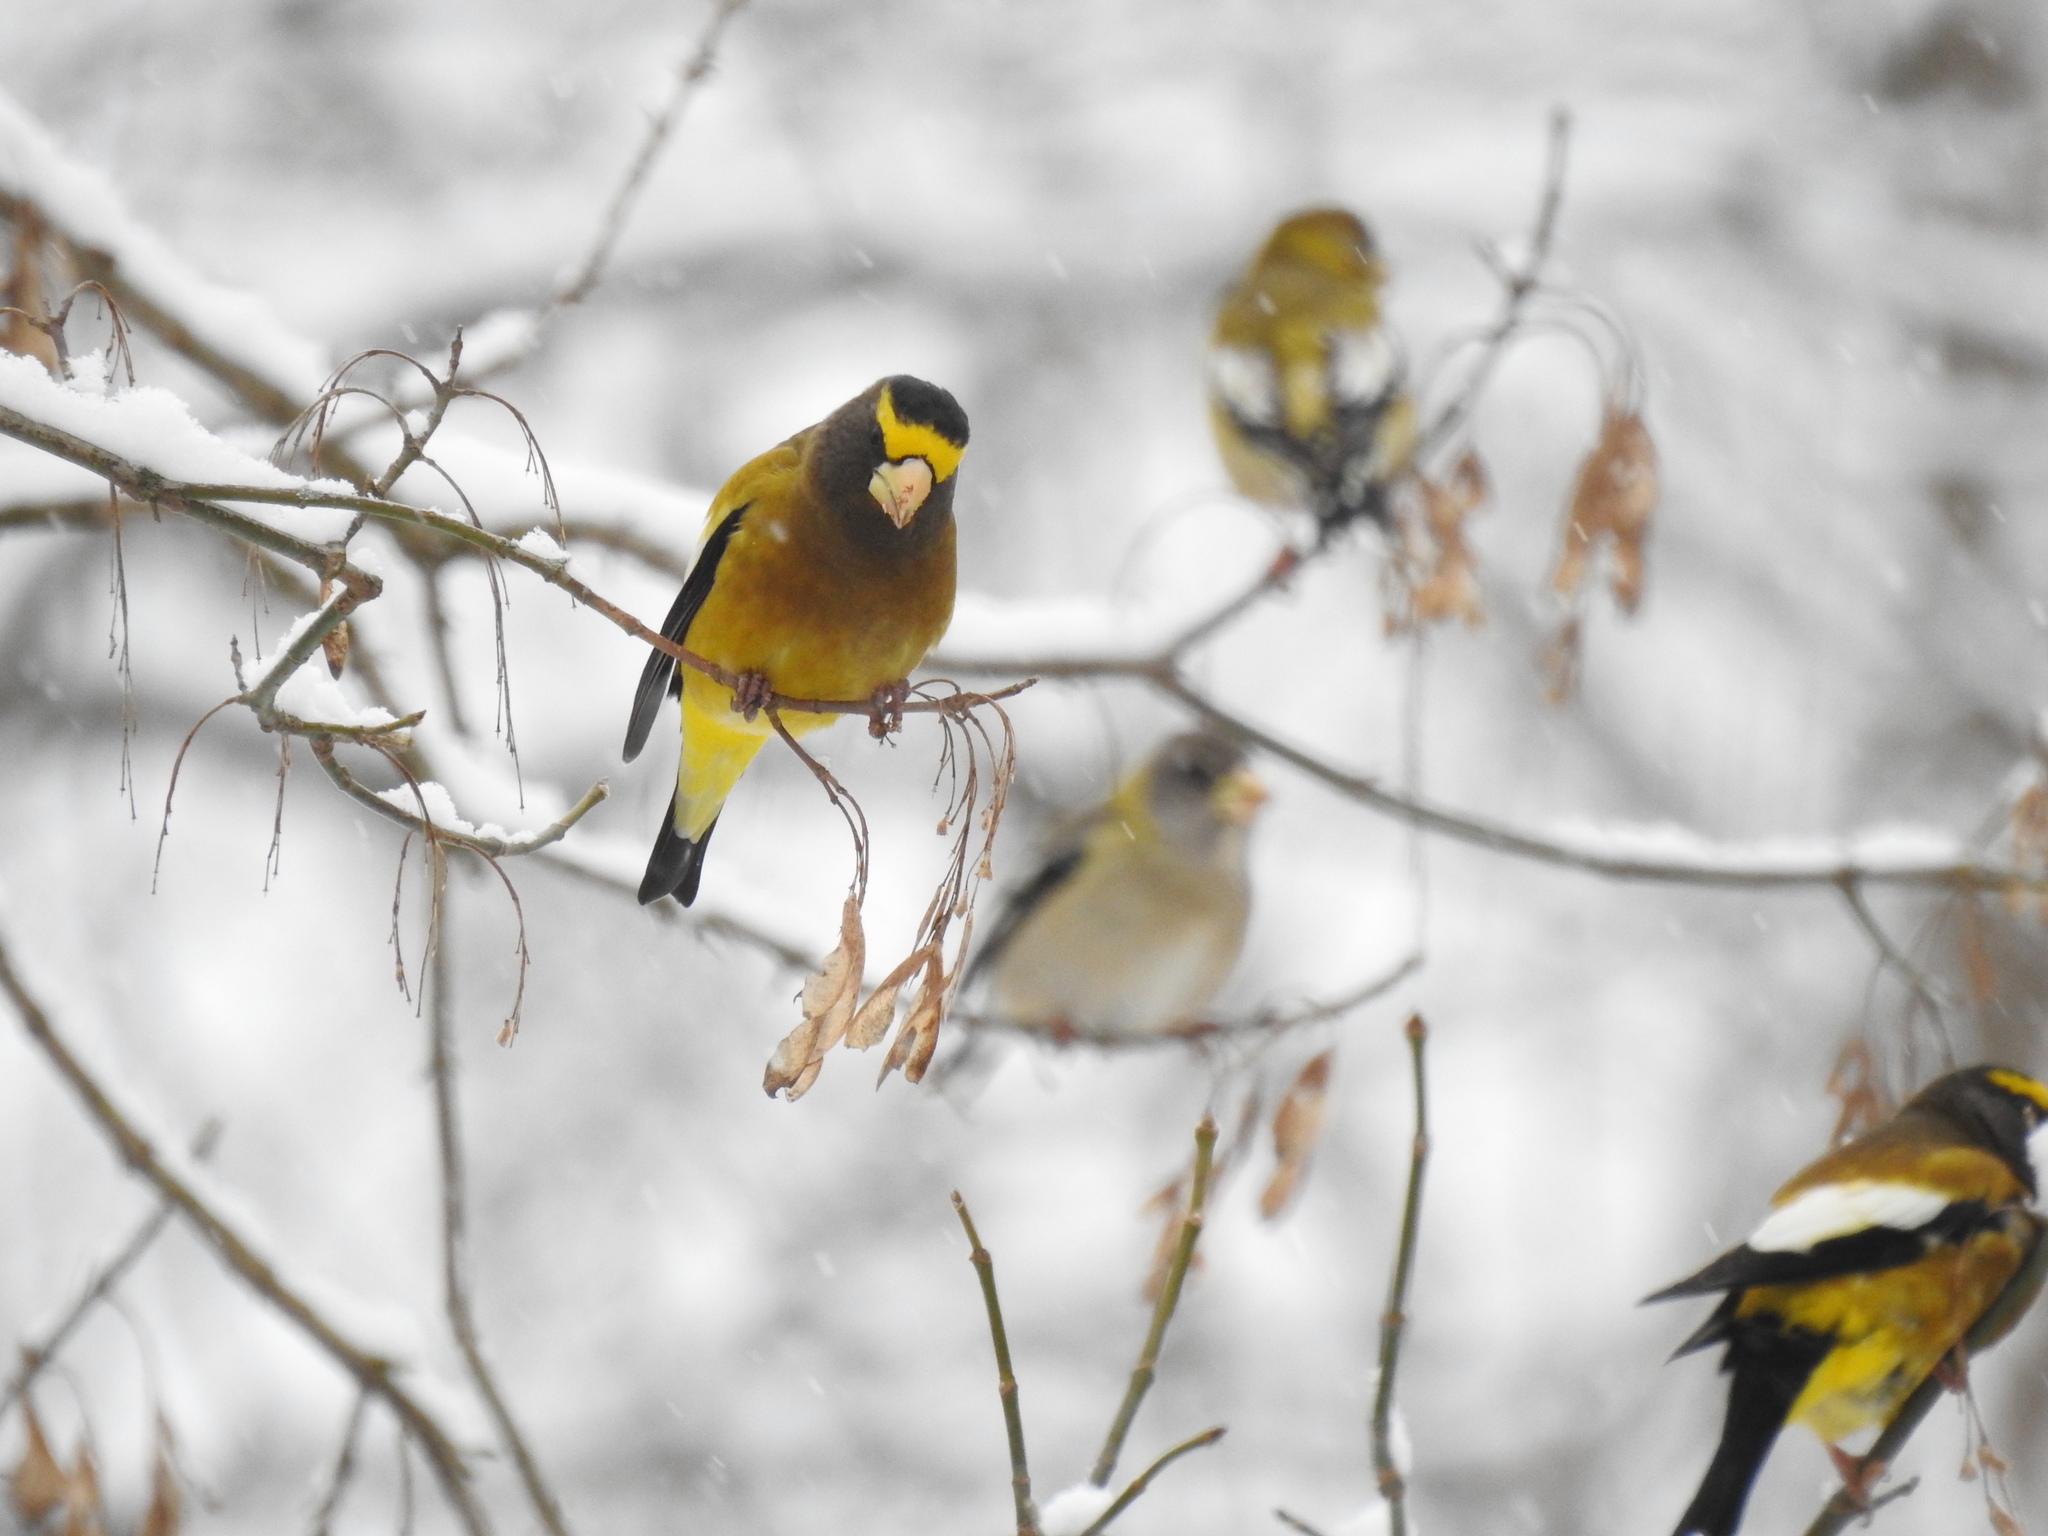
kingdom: Animalia
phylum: Chordata
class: Aves
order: Passeriformes
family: Fringillidae
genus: Hesperiphona
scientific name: Hesperiphona vespertina
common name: Evening grosbeak
